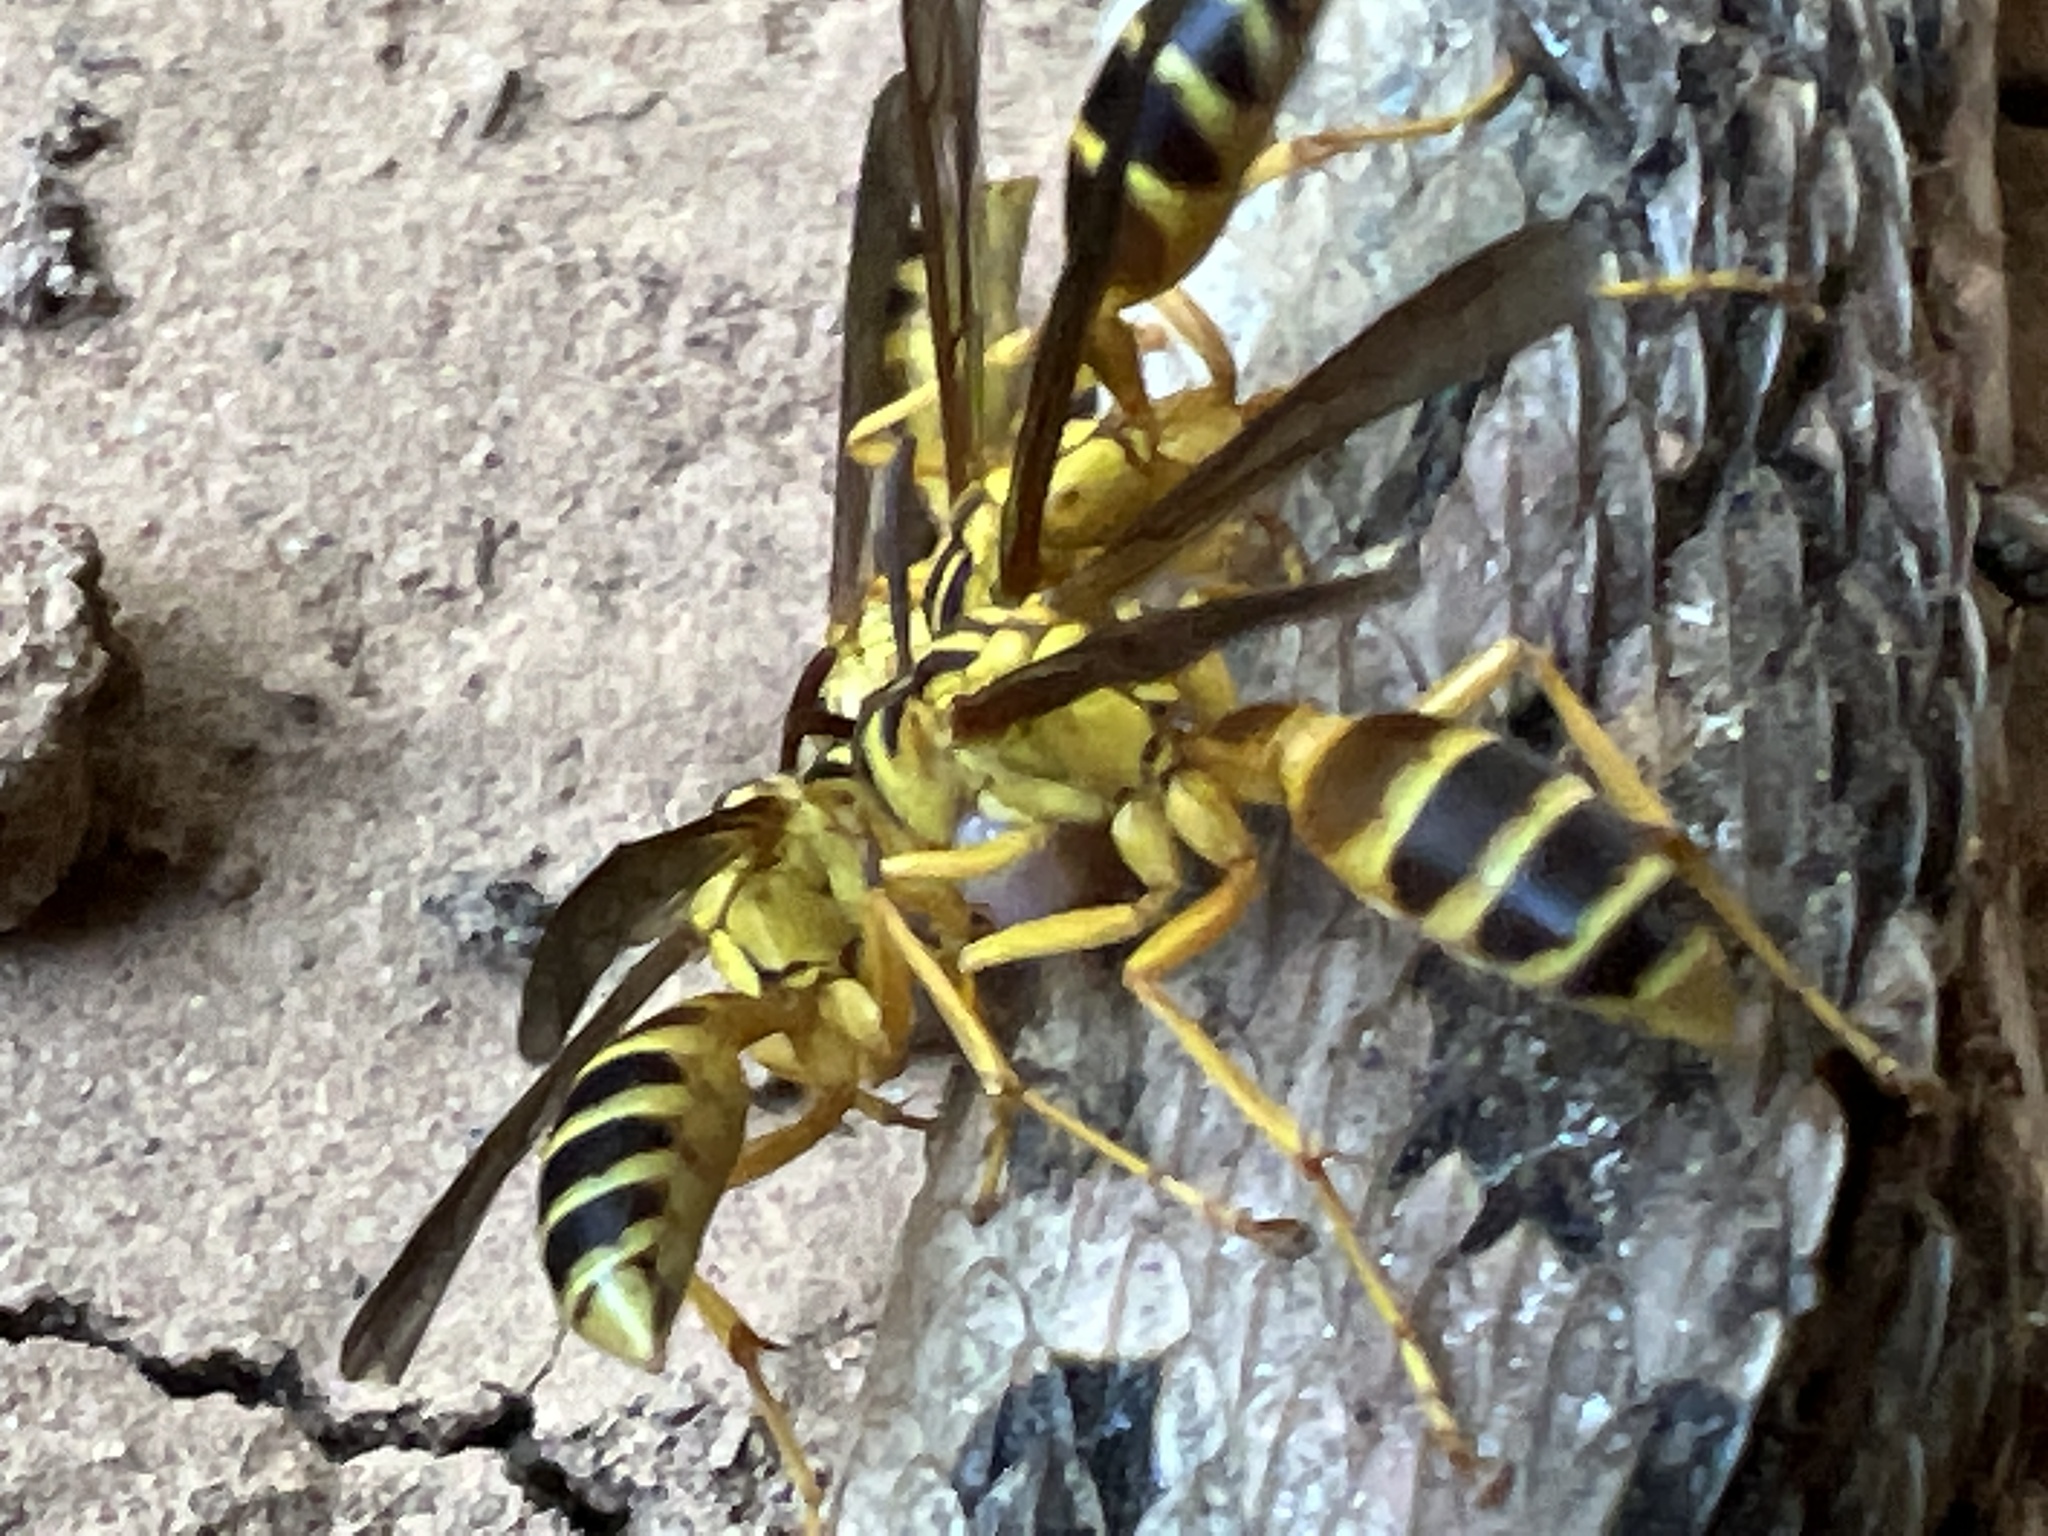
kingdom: Animalia
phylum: Arthropoda
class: Insecta
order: Hymenoptera
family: Vespidae
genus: Agelaia
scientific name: Agelaia
